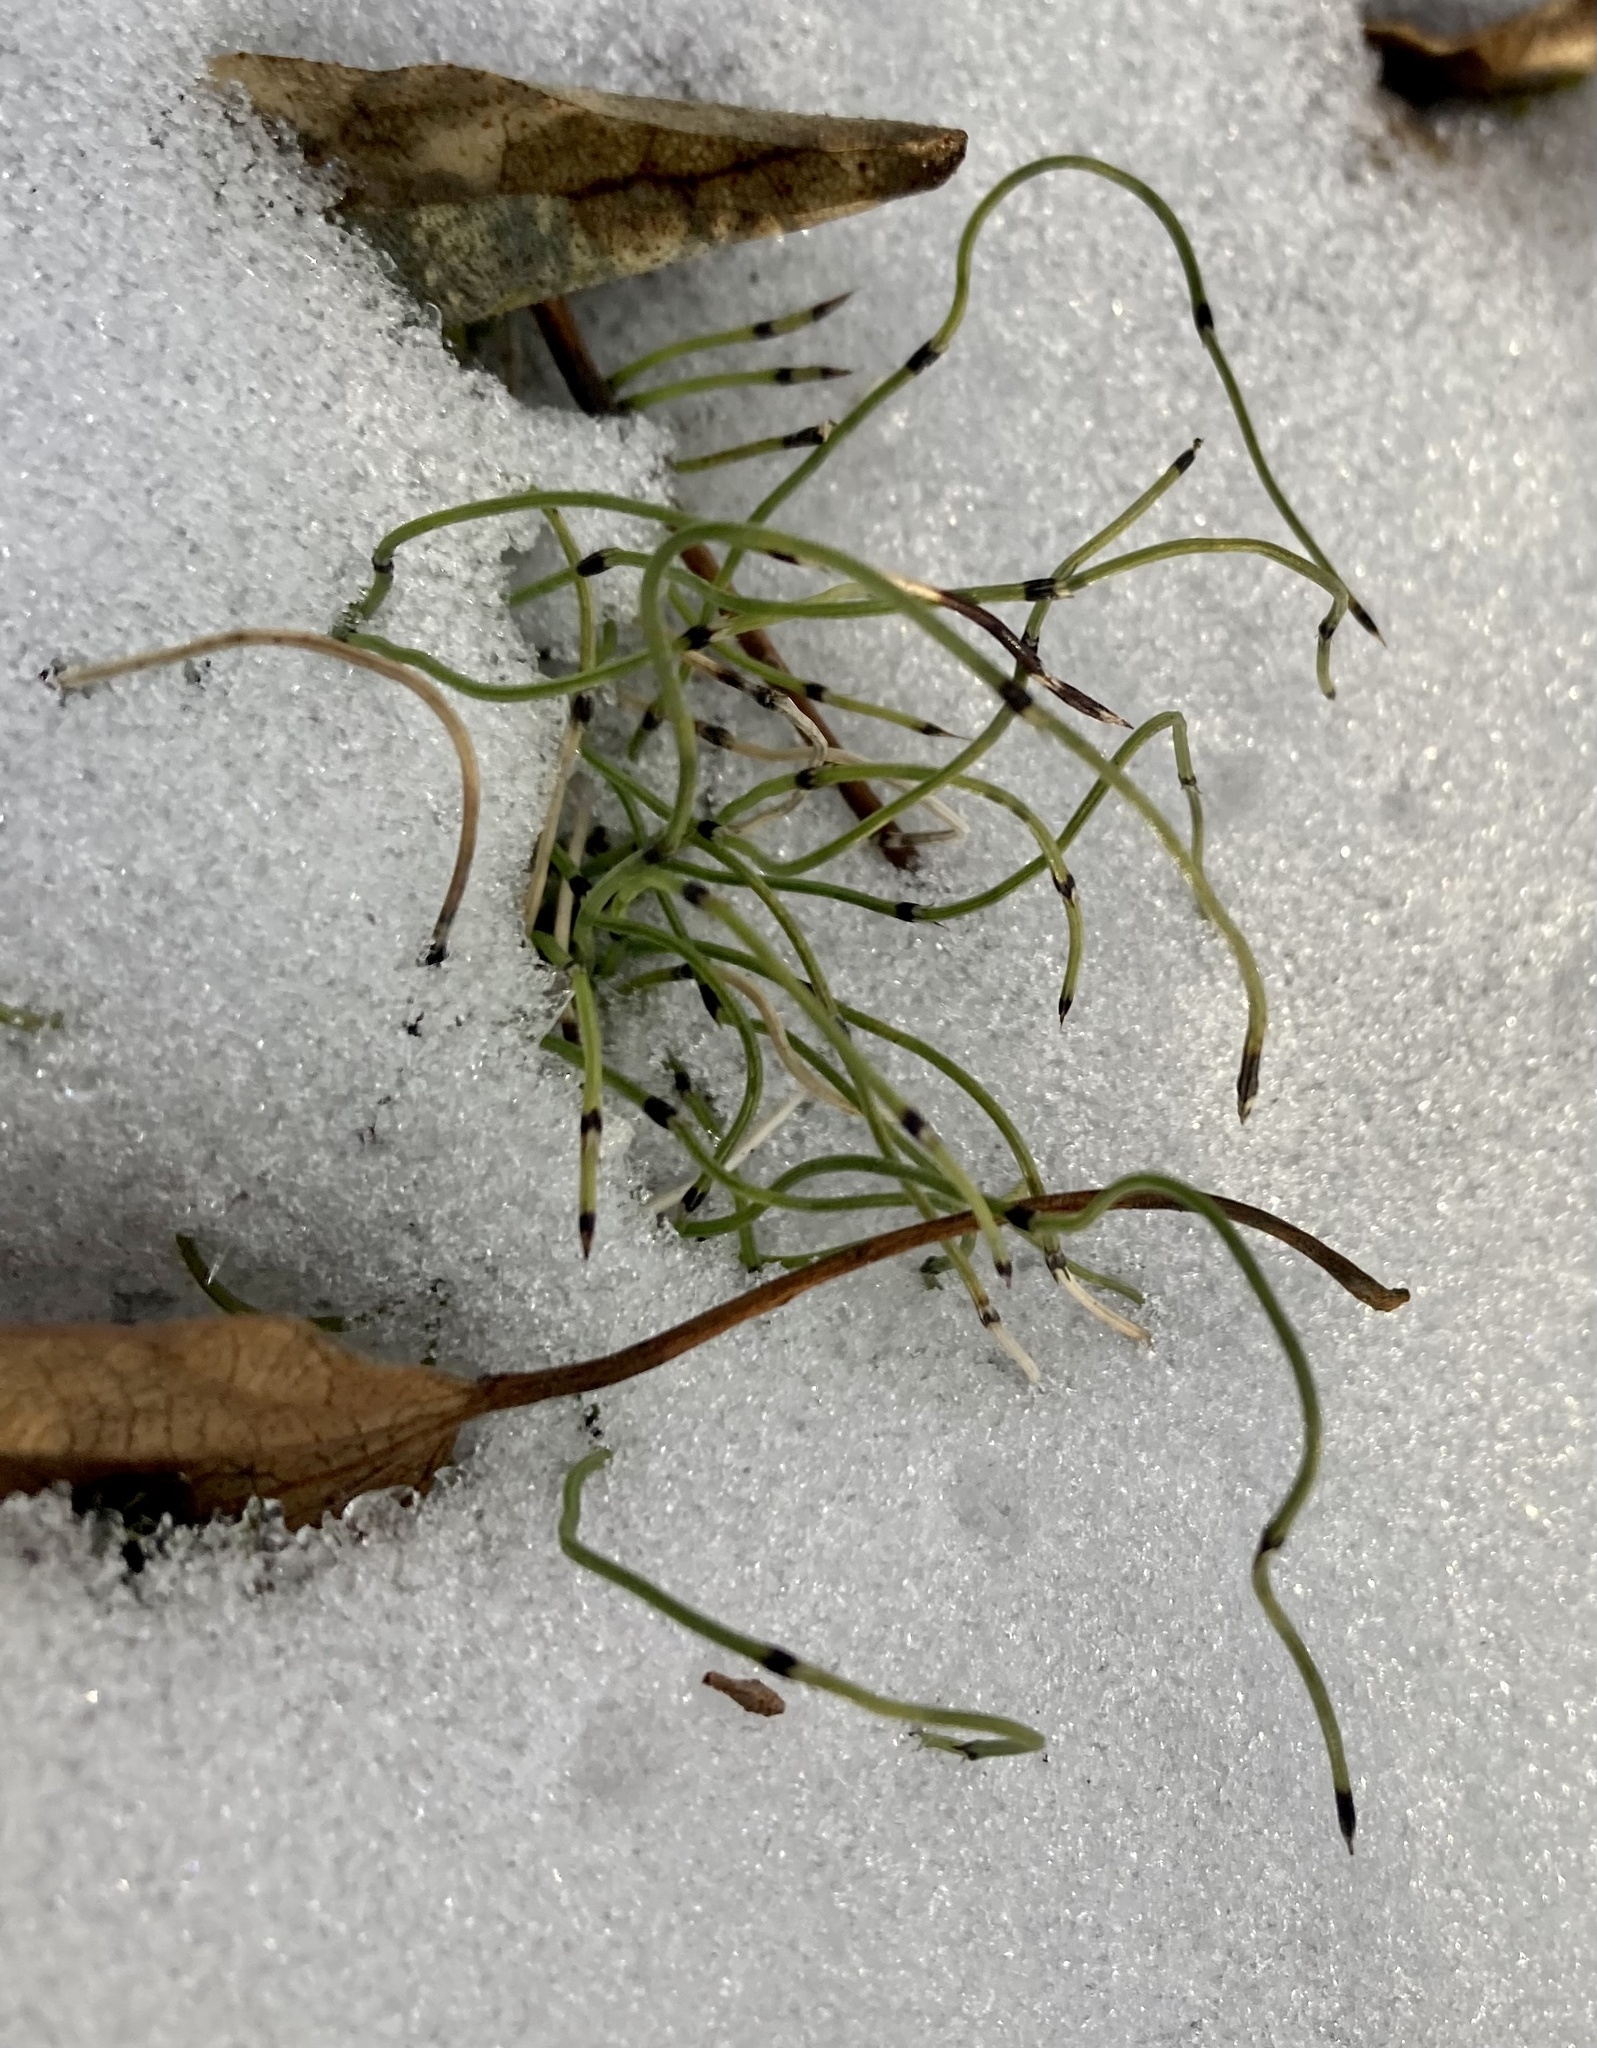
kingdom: Plantae
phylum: Tracheophyta
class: Polypodiopsida
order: Equisetales
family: Equisetaceae
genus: Equisetum
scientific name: Equisetum scirpoides
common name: Delicate horsetail
